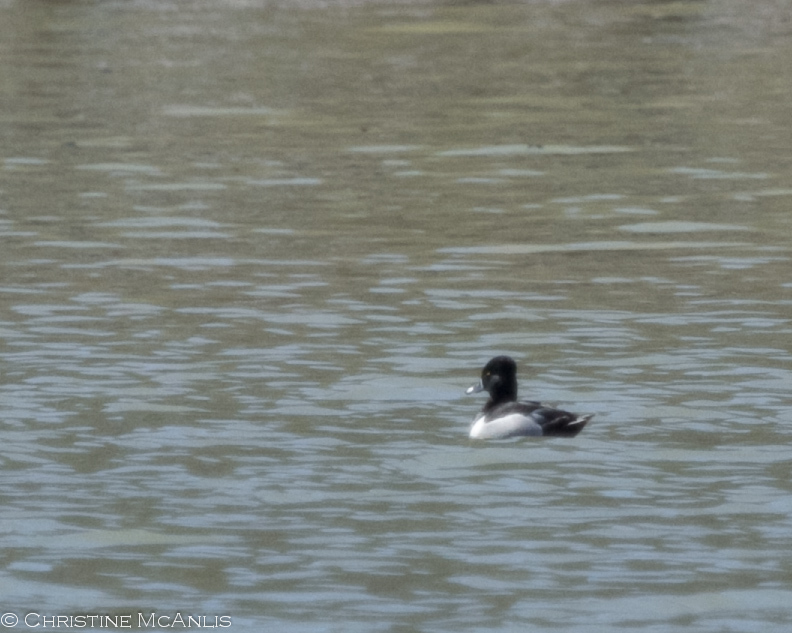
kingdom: Animalia
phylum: Chordata
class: Aves
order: Anseriformes
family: Anatidae
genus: Aythya
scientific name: Aythya collaris
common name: Ring-necked duck
